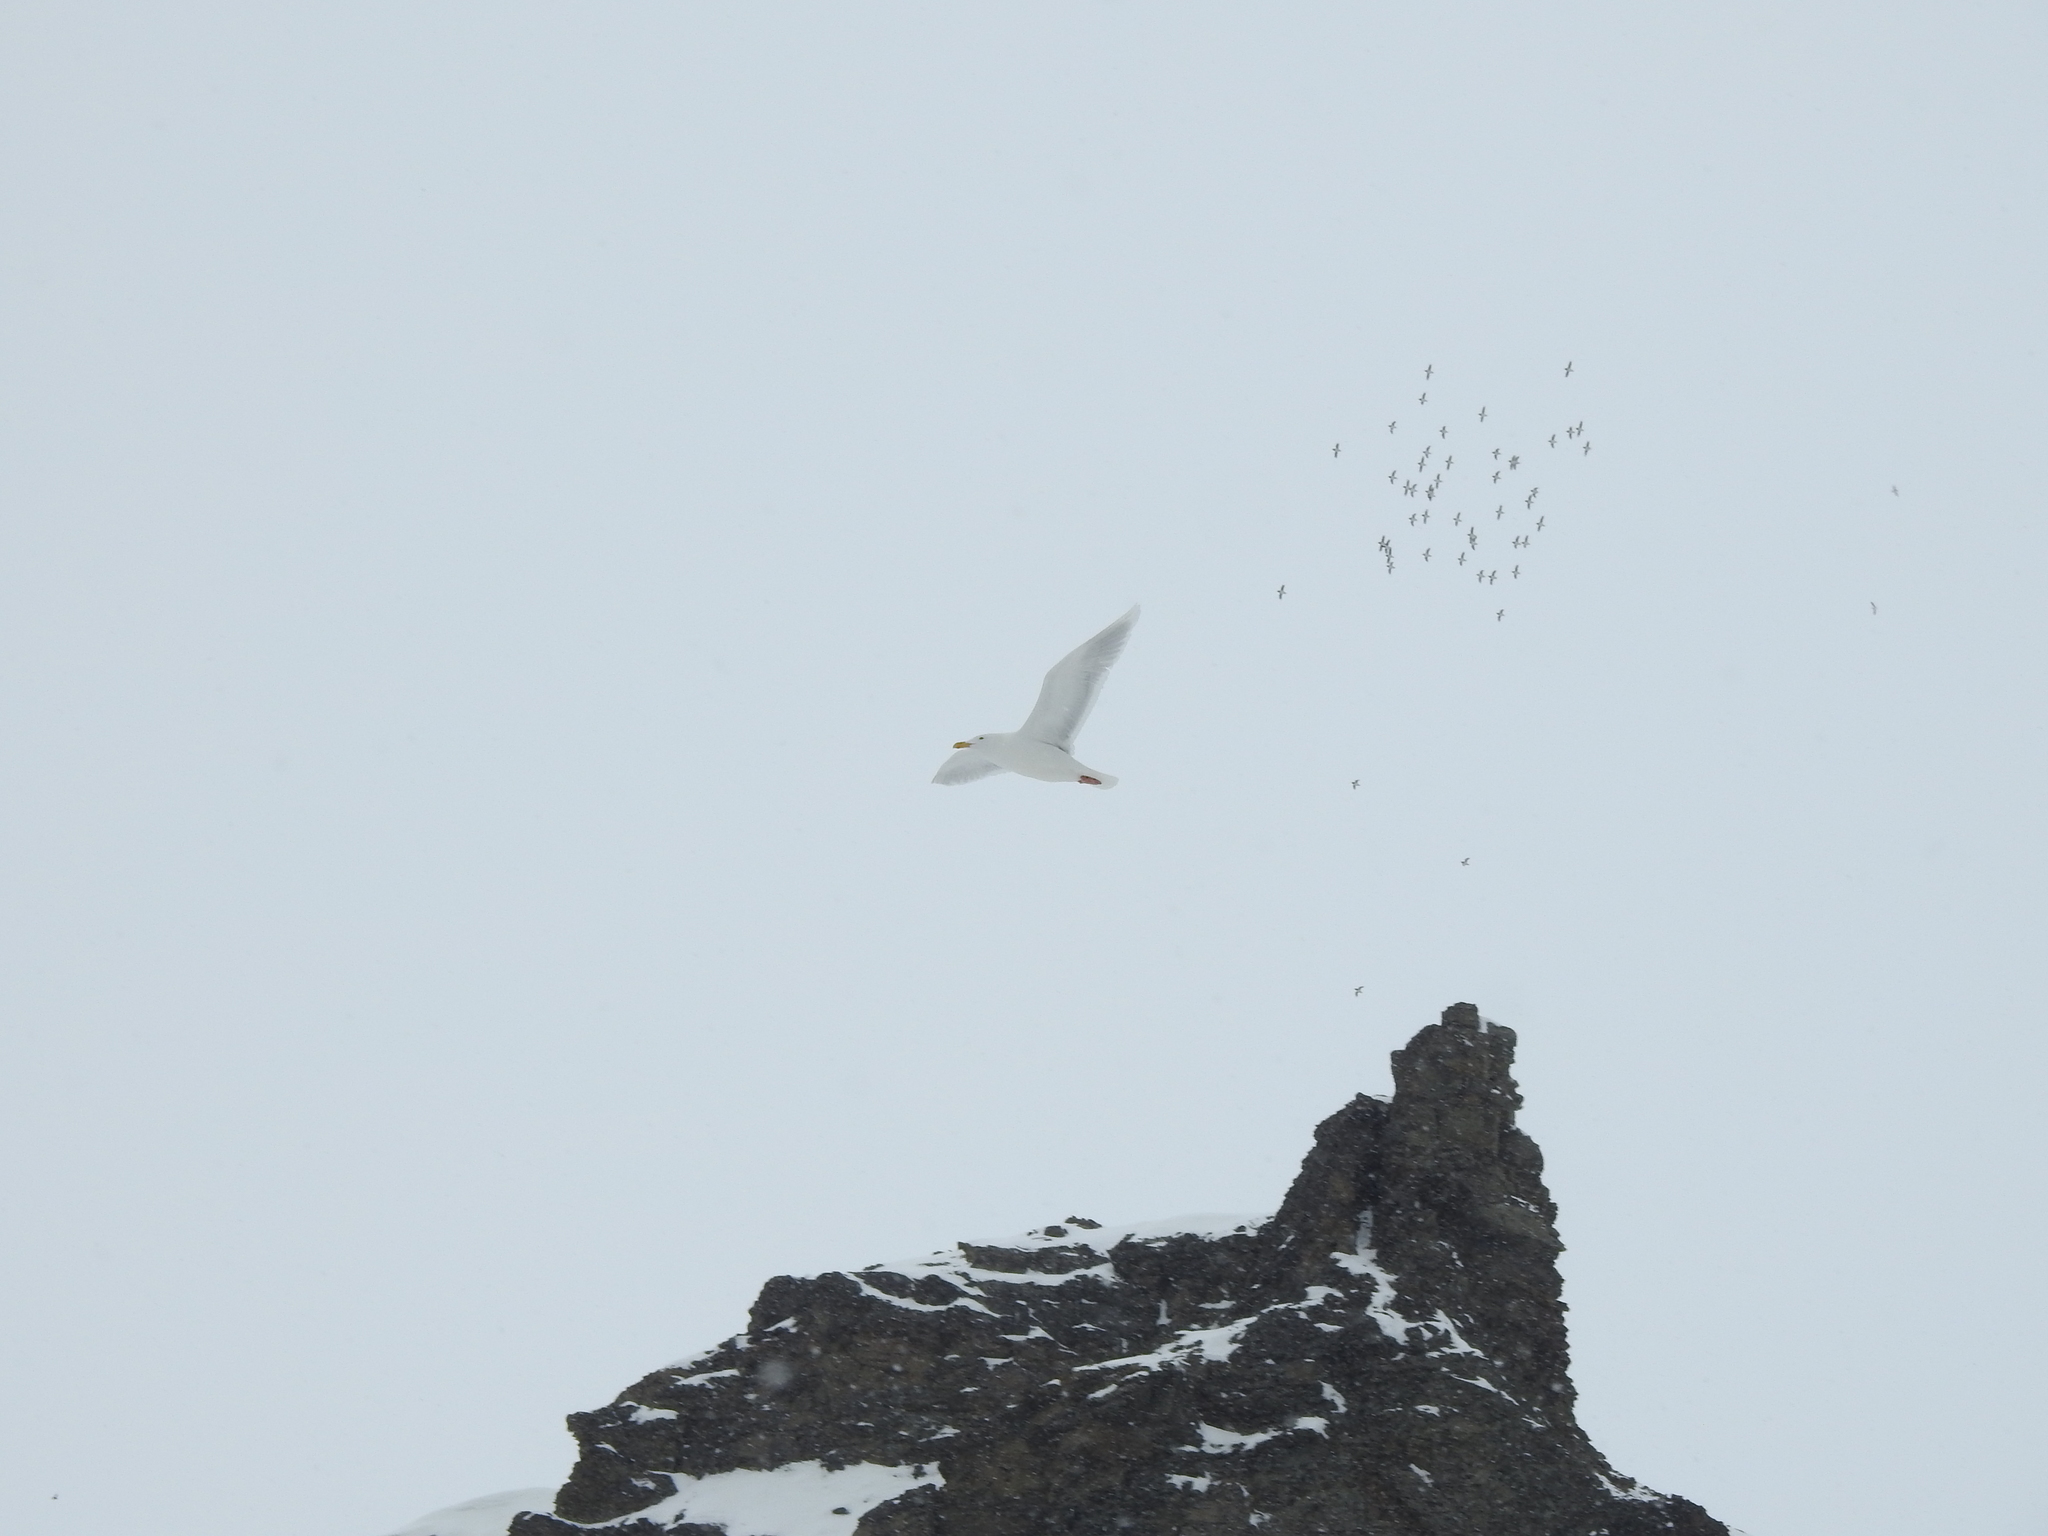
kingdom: Animalia
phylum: Chordata
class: Aves
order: Charadriiformes
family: Laridae
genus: Larus
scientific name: Larus hyperboreus
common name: Glaucous gull
